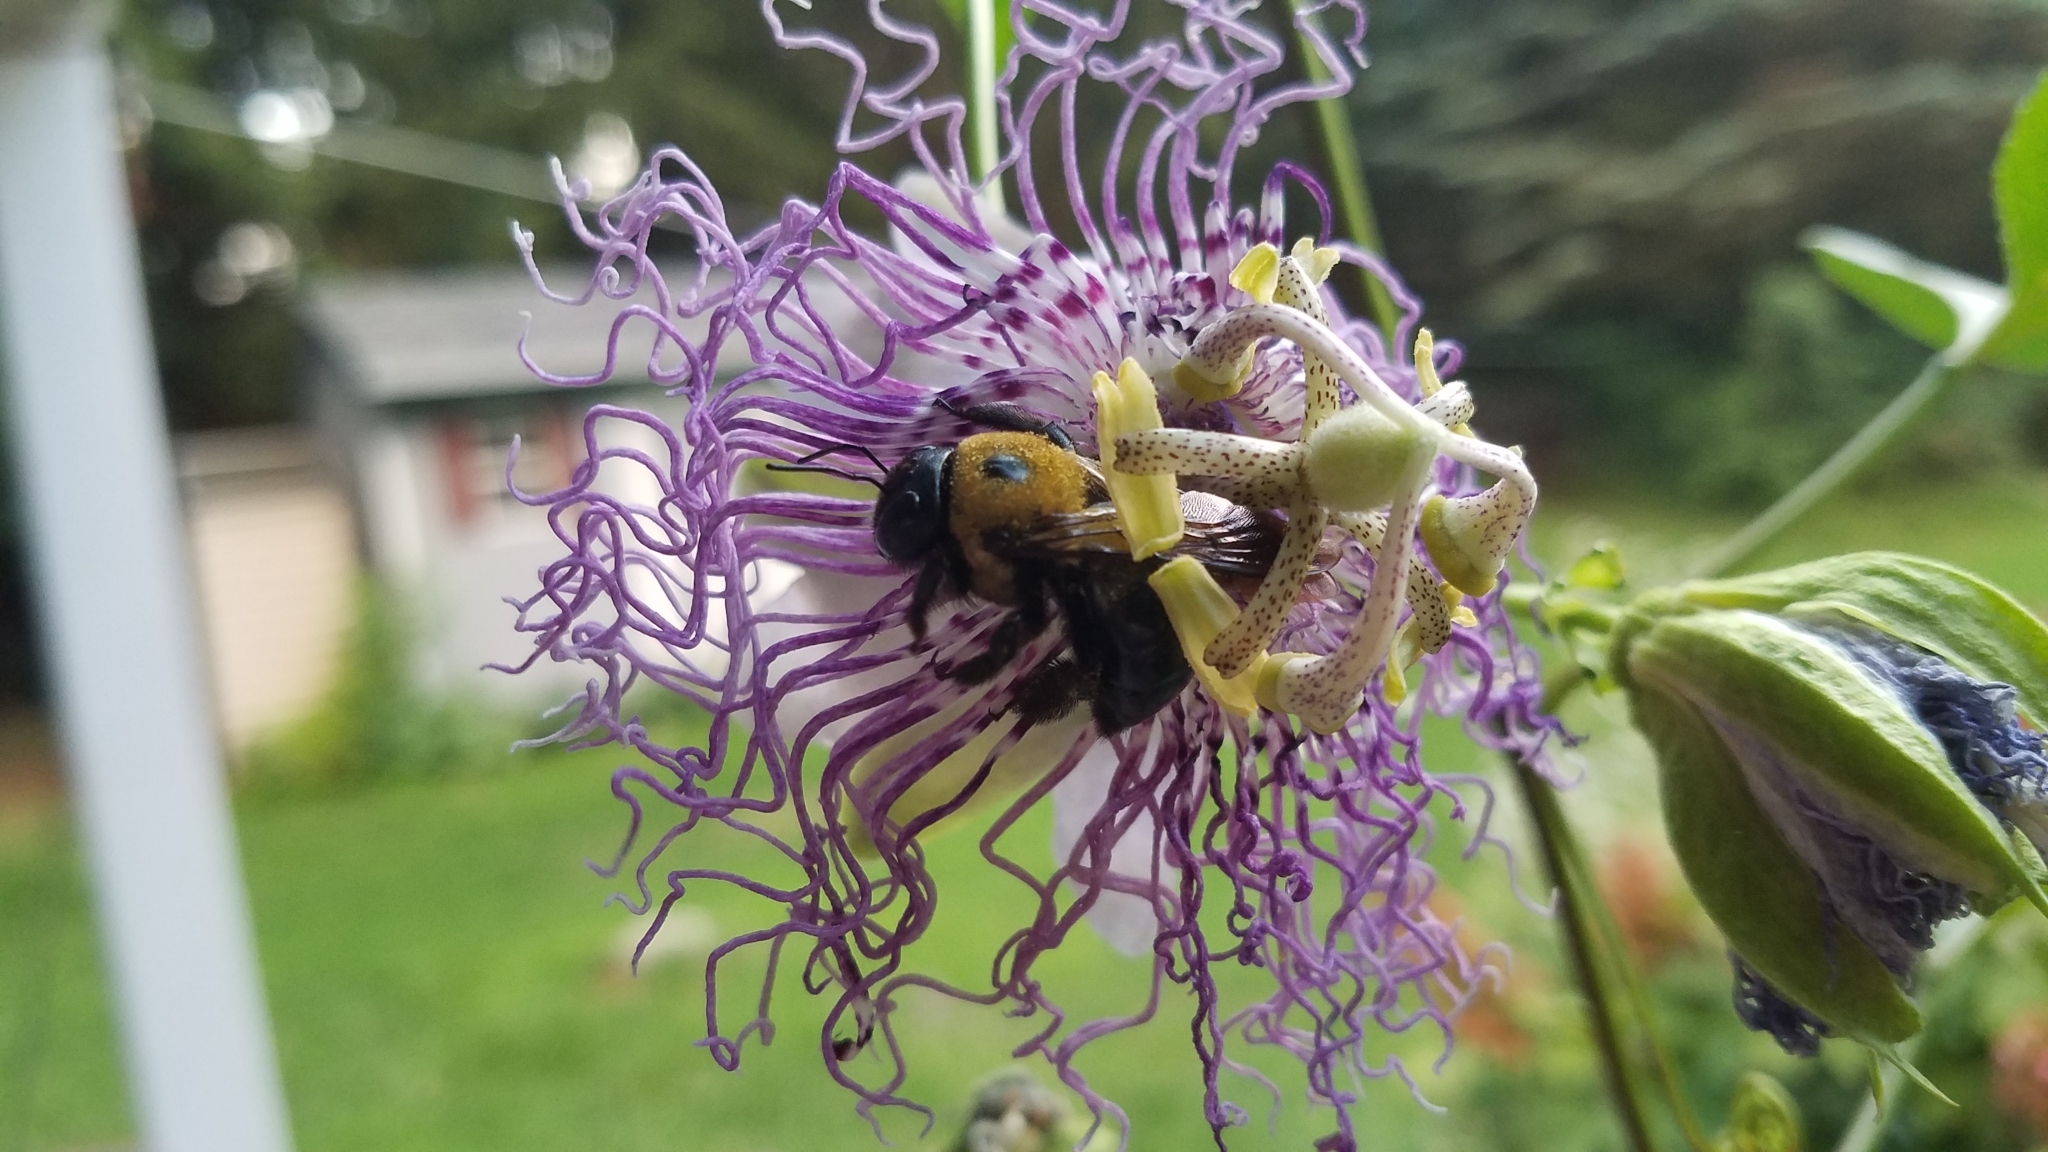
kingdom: Animalia
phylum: Arthropoda
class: Insecta
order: Hymenoptera
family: Apidae
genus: Xylocopa
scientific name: Xylocopa virginica
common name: Carpenter bee
